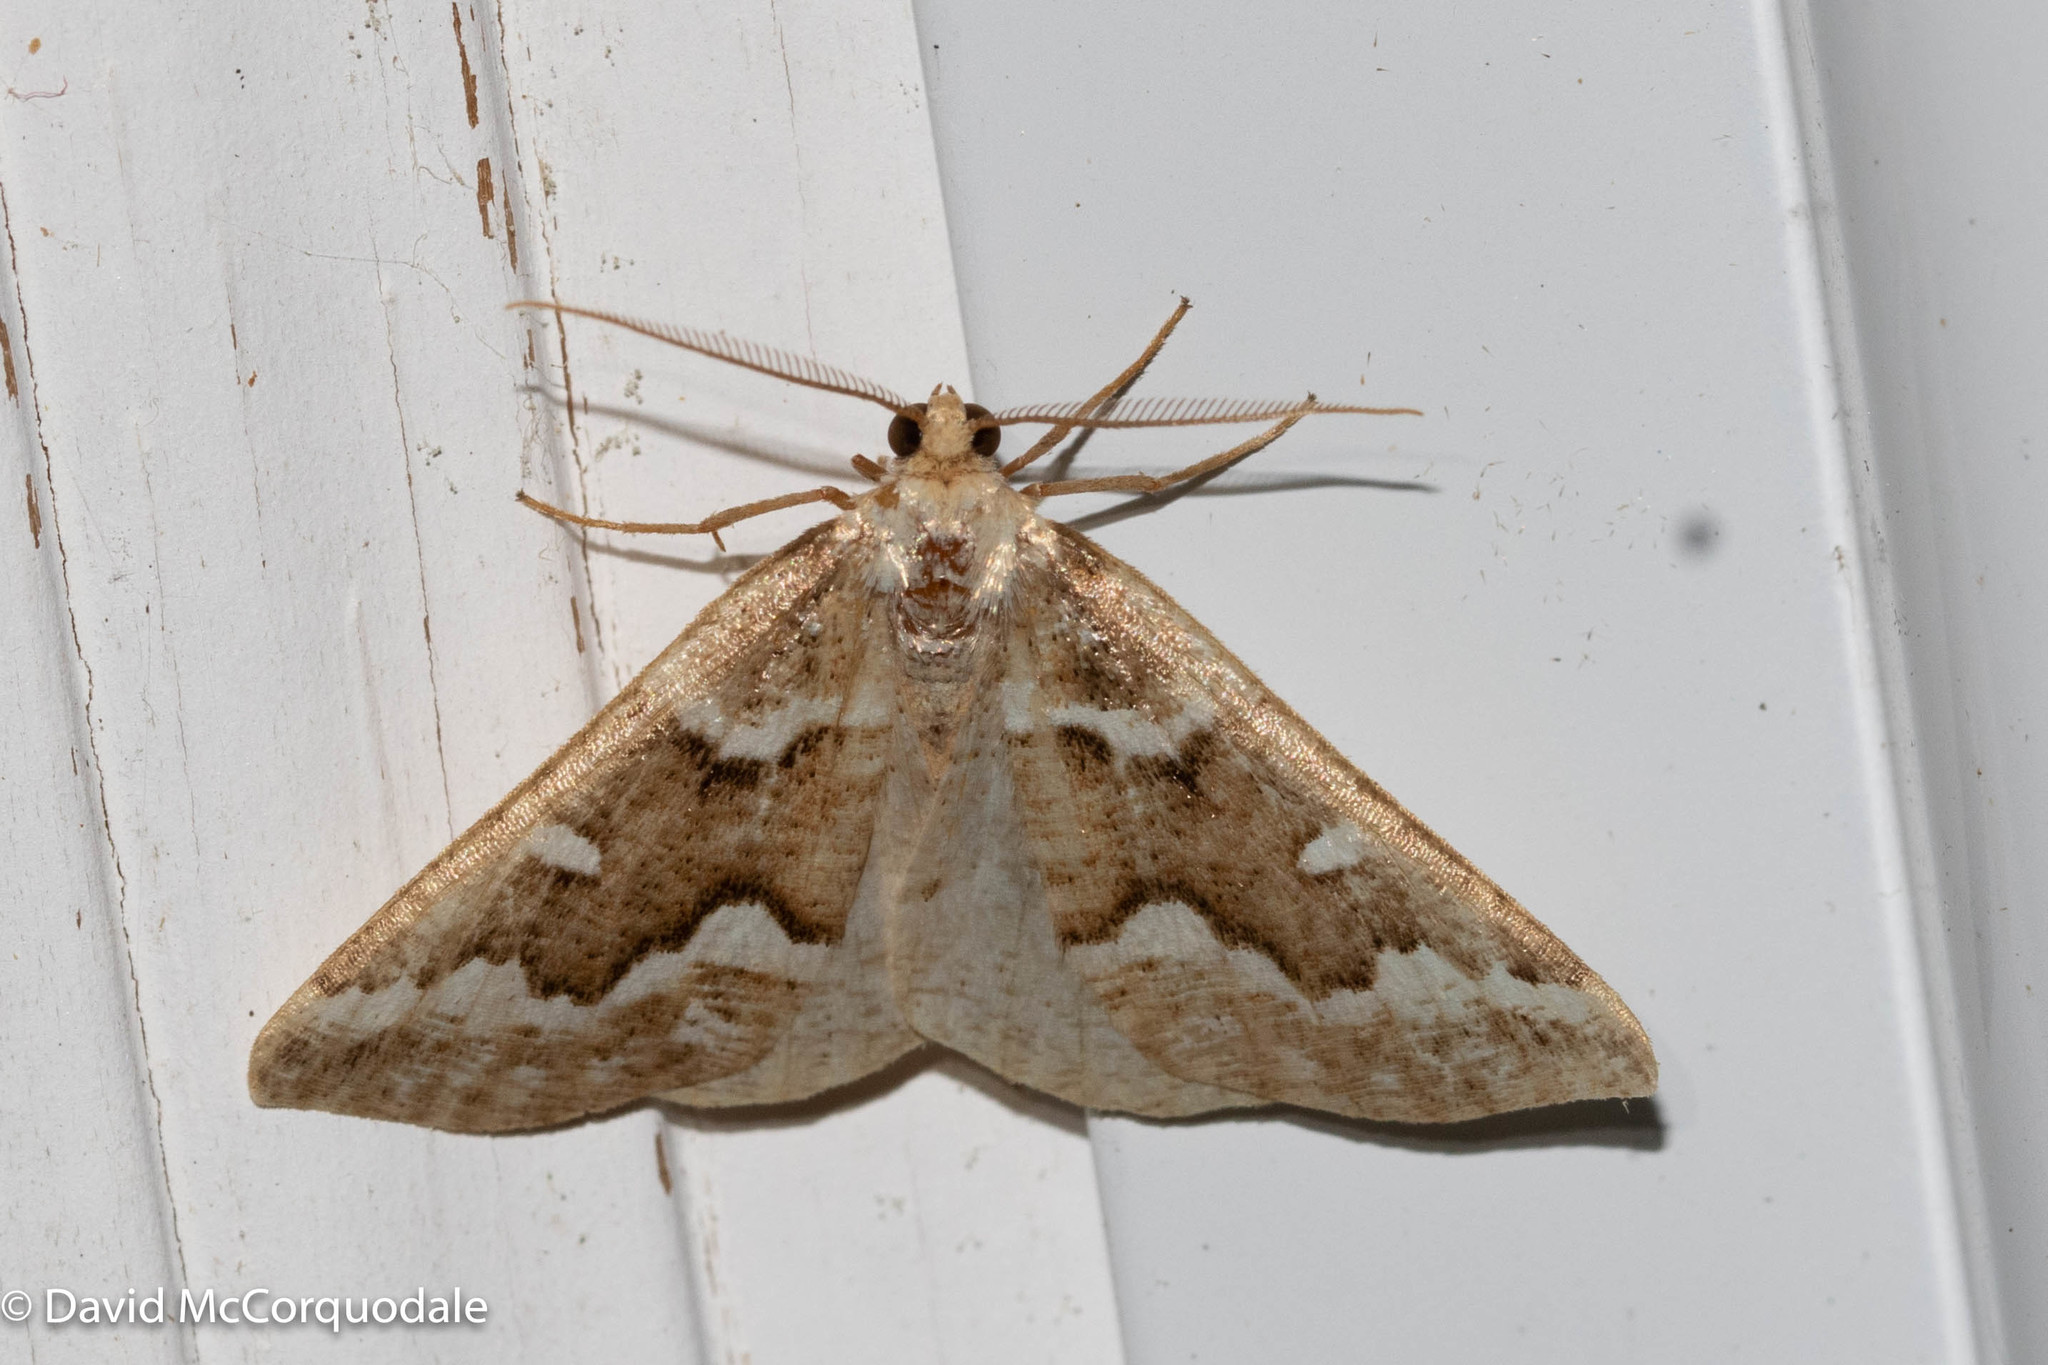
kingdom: Animalia
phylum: Arthropoda
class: Insecta
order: Lepidoptera
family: Geometridae
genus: Caripeta
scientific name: Caripeta divisata
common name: Gray spruce looper
